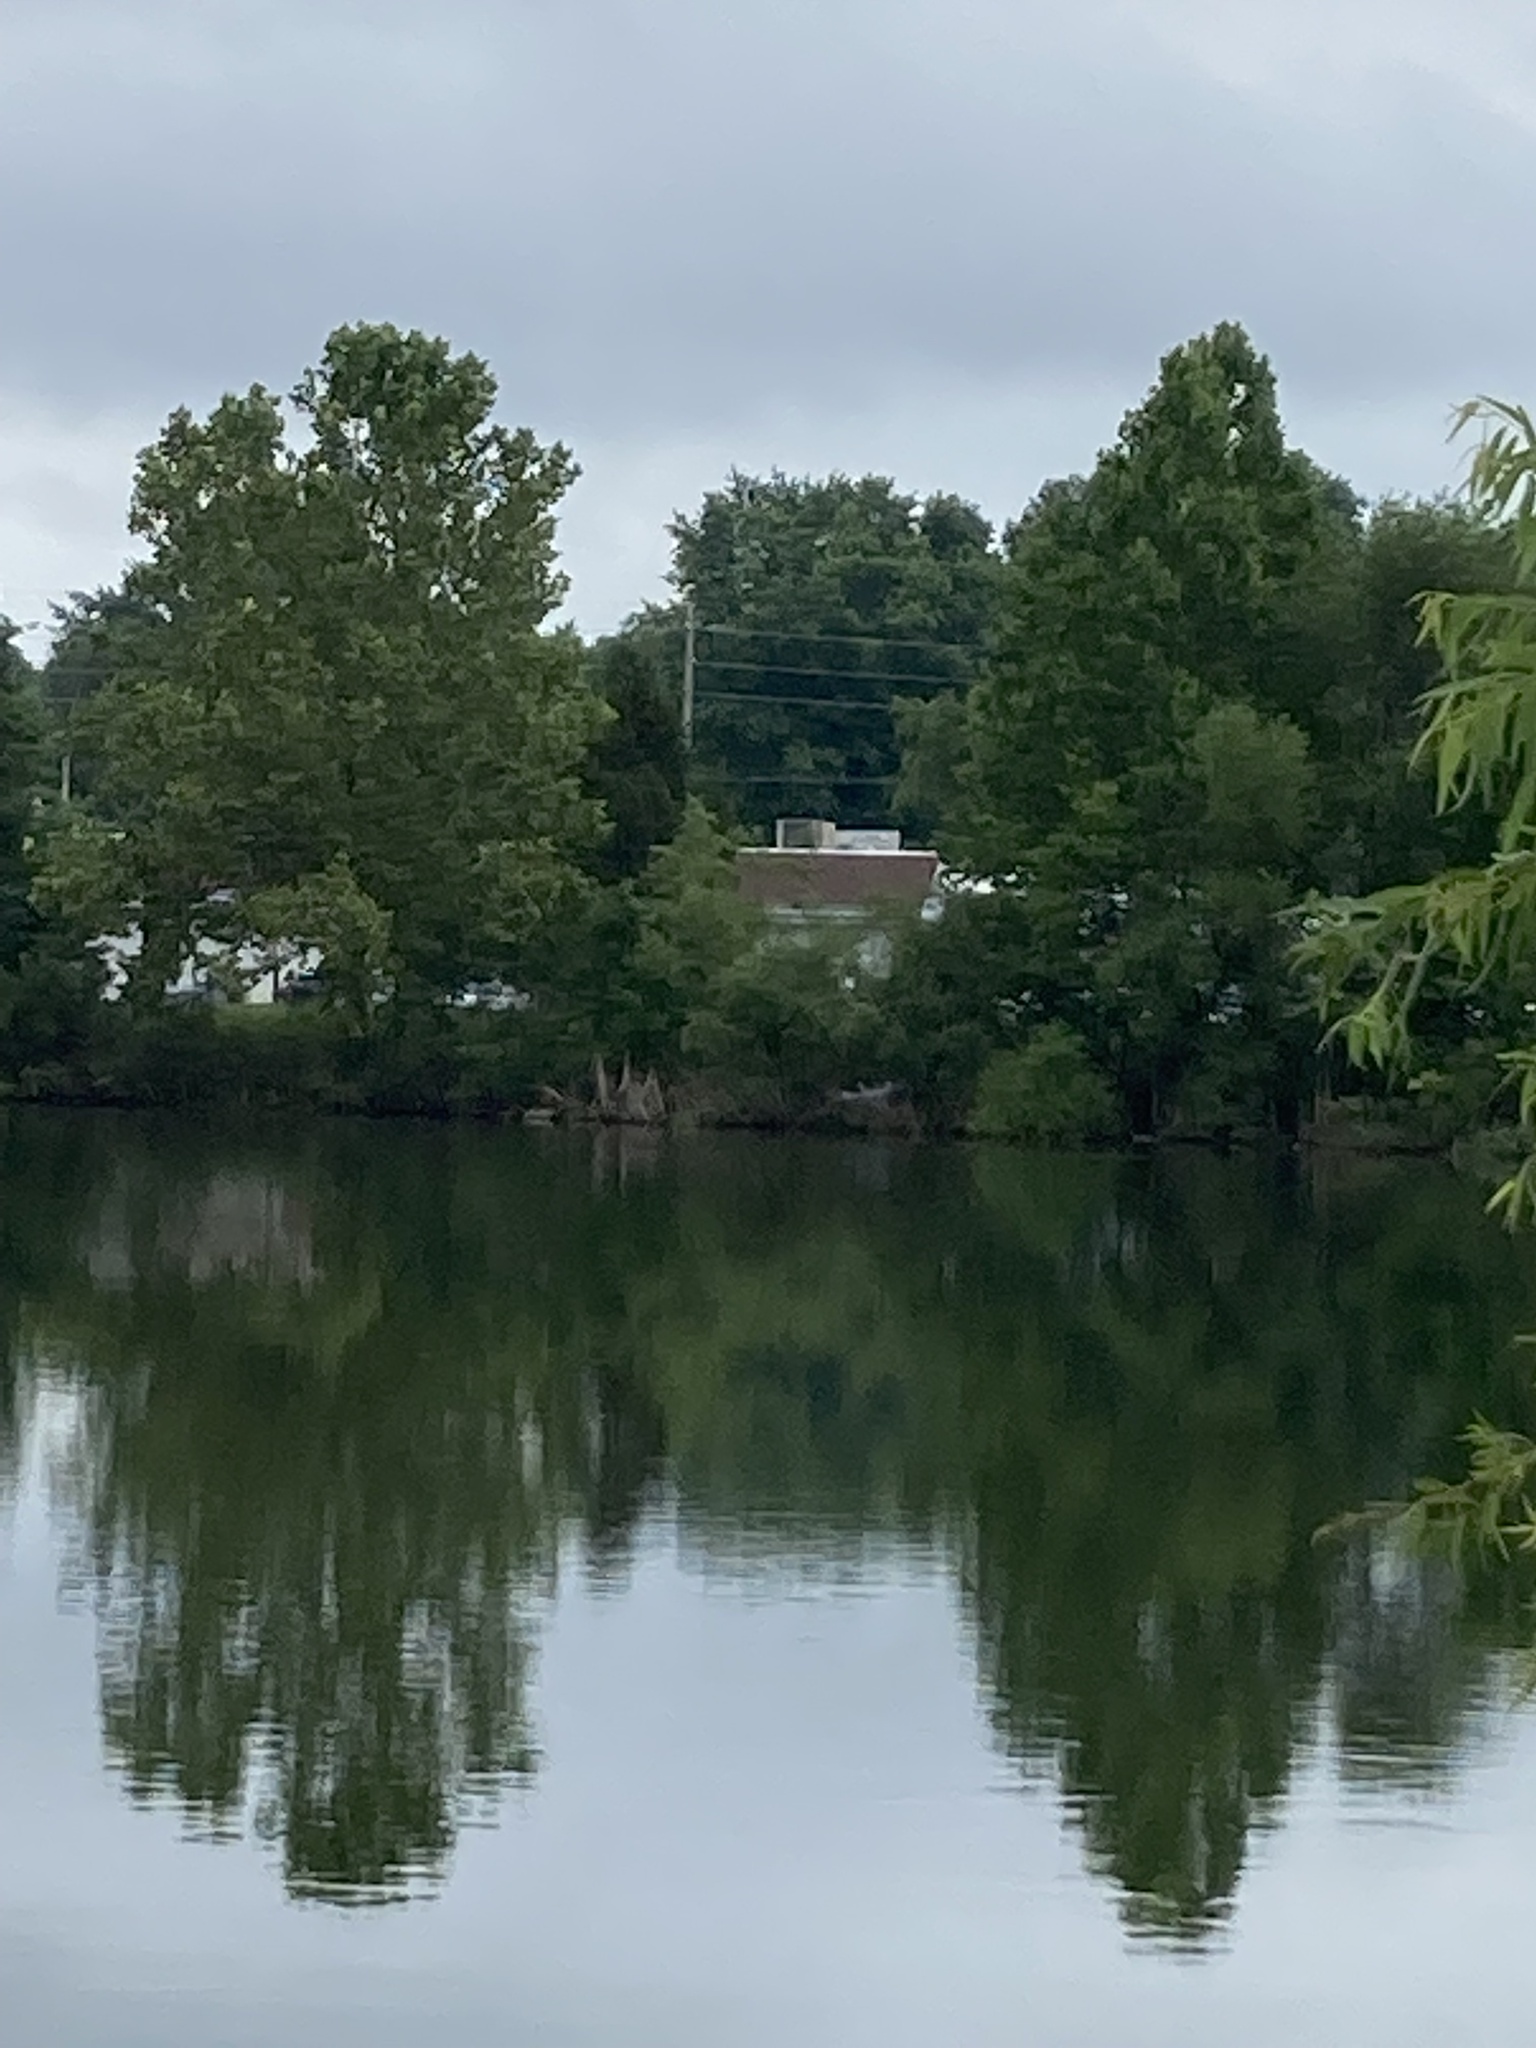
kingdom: Animalia
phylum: Chordata
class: Aves
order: Pelecaniformes
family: Ardeidae
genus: Ardea
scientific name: Ardea herodias
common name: Great blue heron
